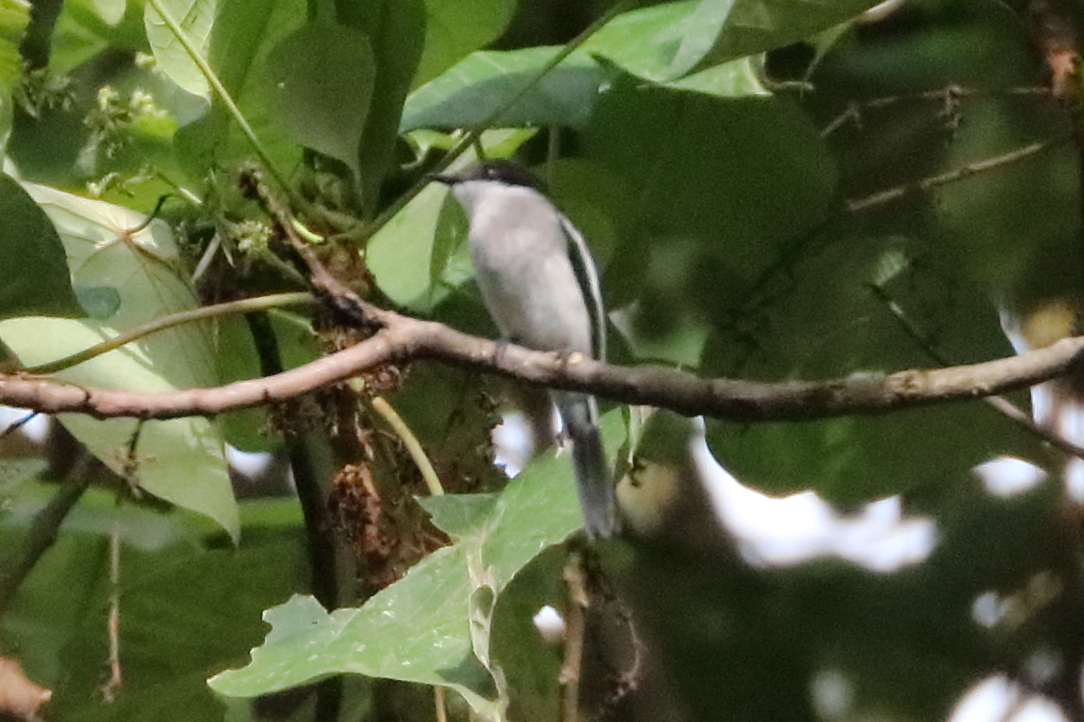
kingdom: Animalia
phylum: Chordata
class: Aves
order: Passeriformes
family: Tephrodornithidae
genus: Hemipus
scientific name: Hemipus picatus
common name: Bar-winged flycatcher-shrike
